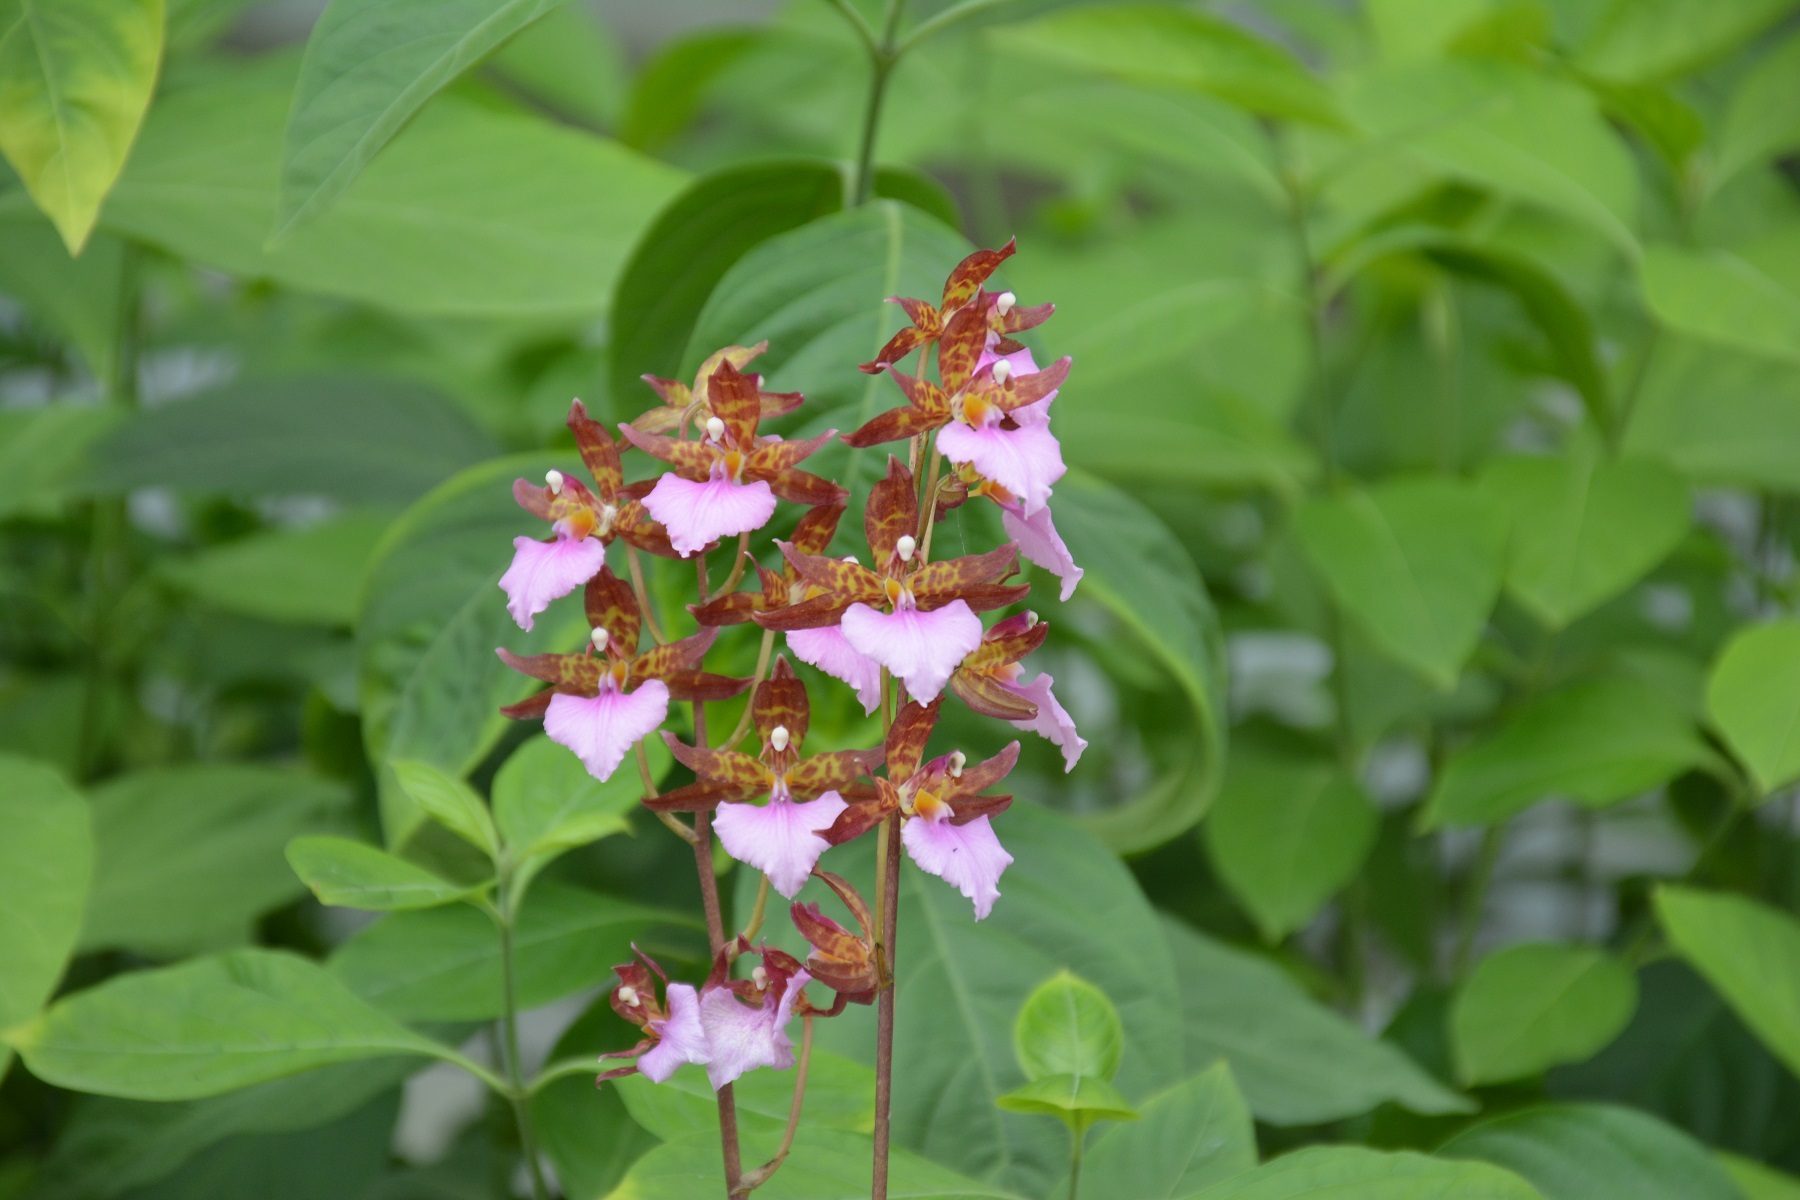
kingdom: Plantae
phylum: Tracheophyta
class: Liliopsida
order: Asparagales
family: Orchidaceae
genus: Rhynchostele
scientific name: Rhynchostele bictoniensis
